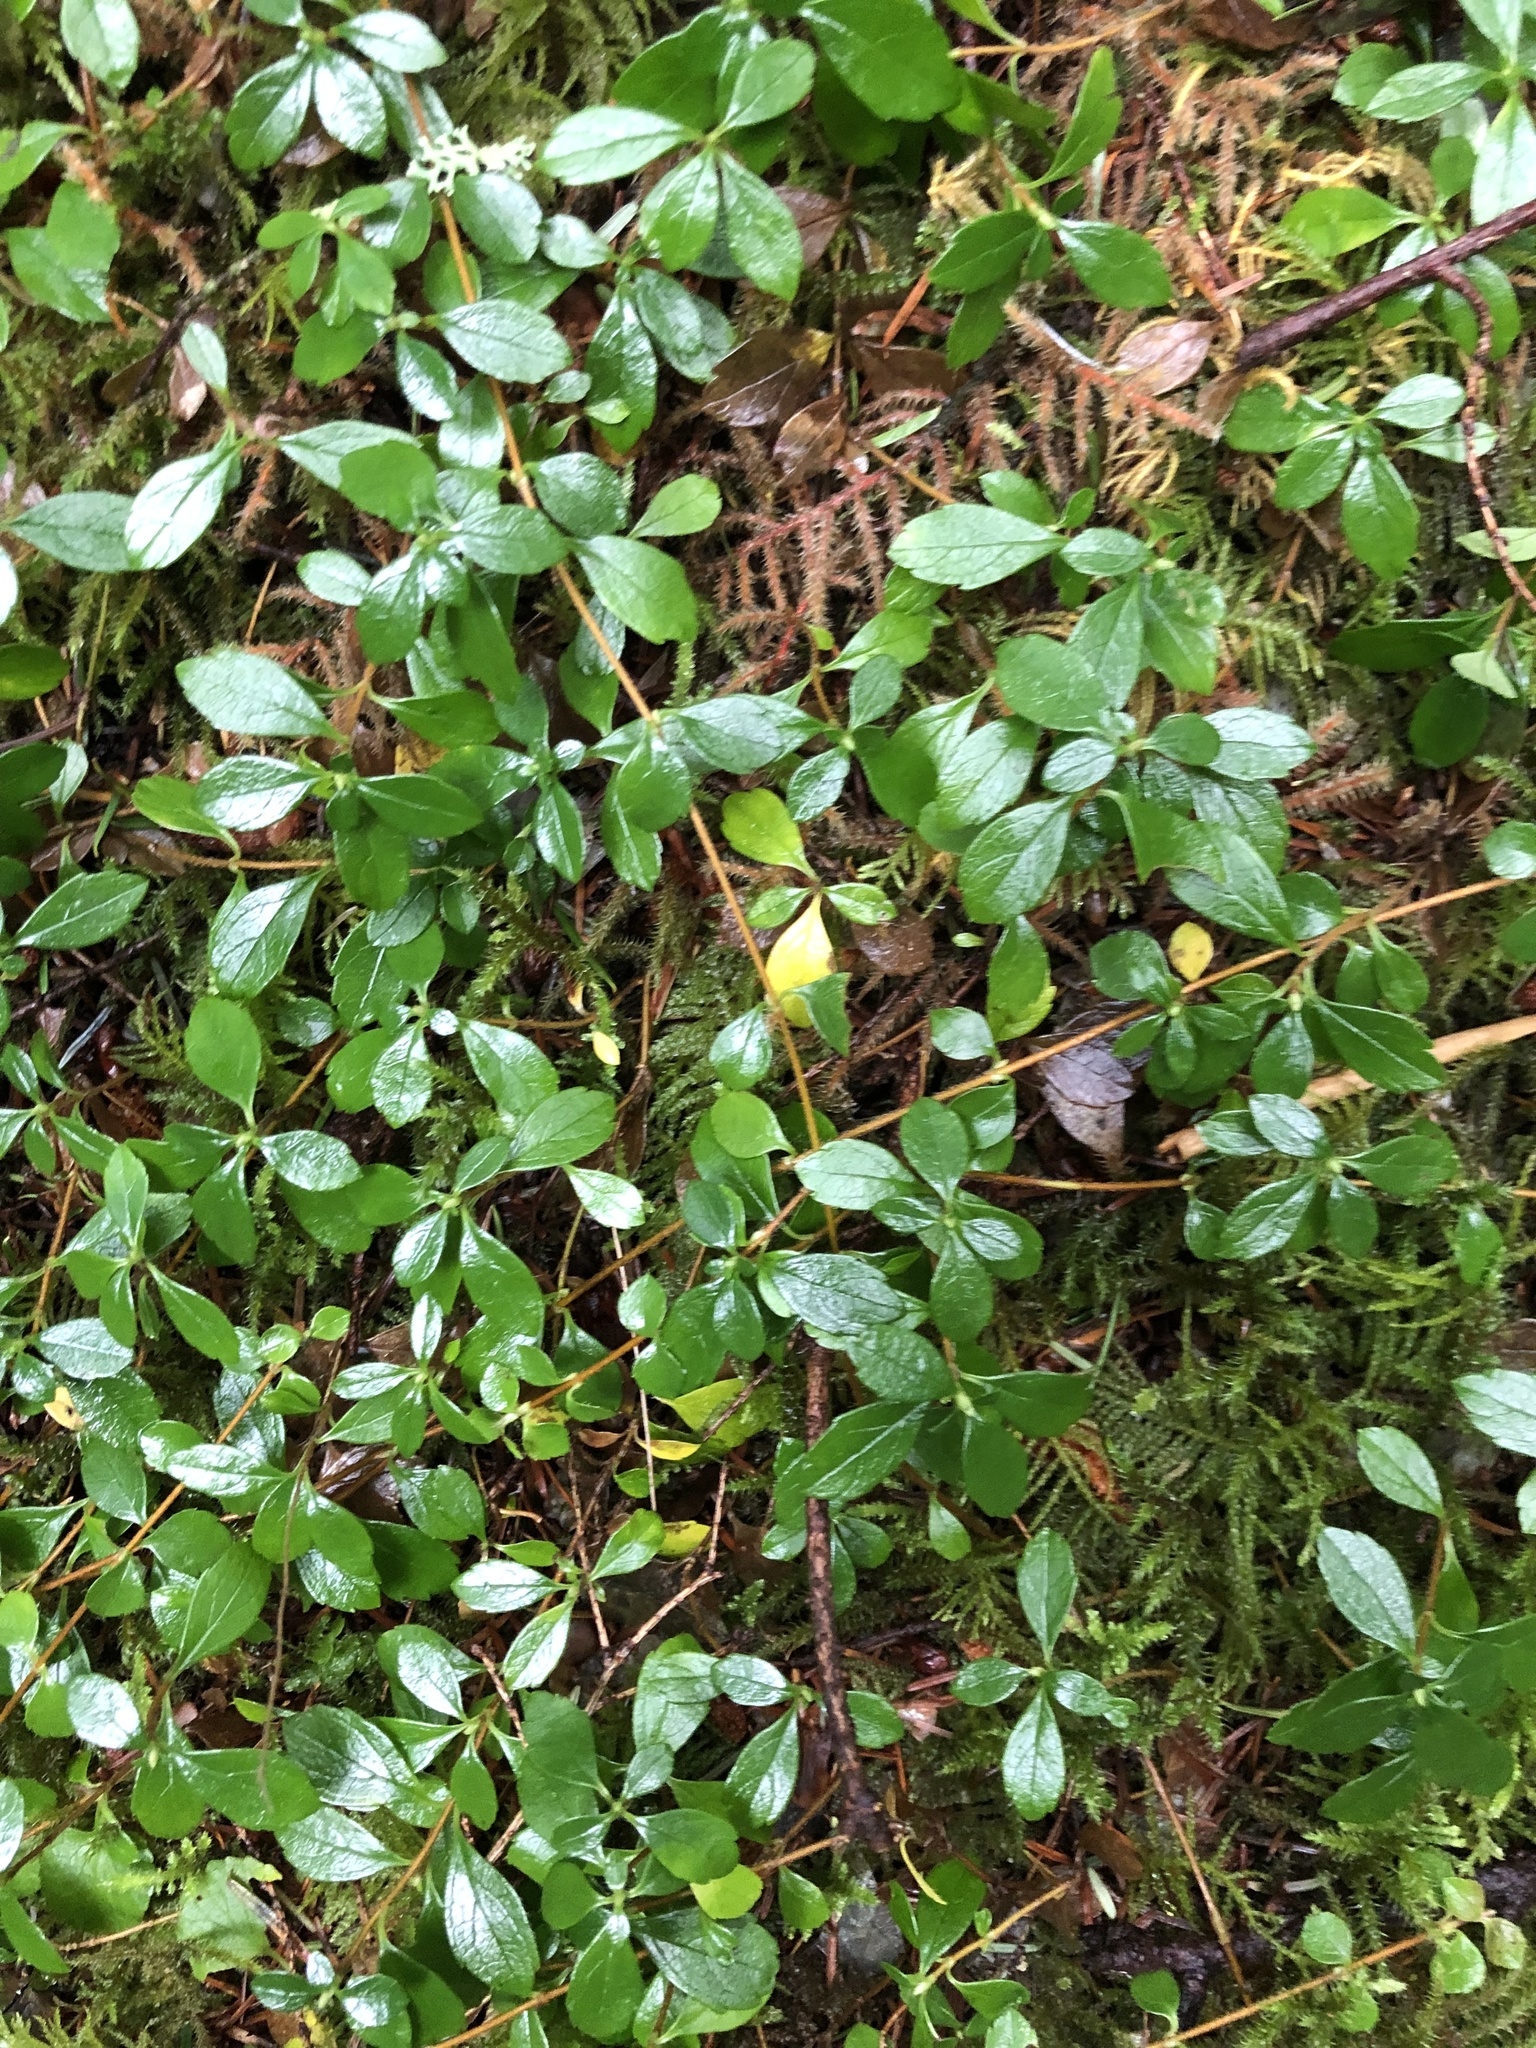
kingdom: Plantae
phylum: Tracheophyta
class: Magnoliopsida
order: Dipsacales
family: Caprifoliaceae
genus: Linnaea
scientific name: Linnaea borealis
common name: Twinflower
